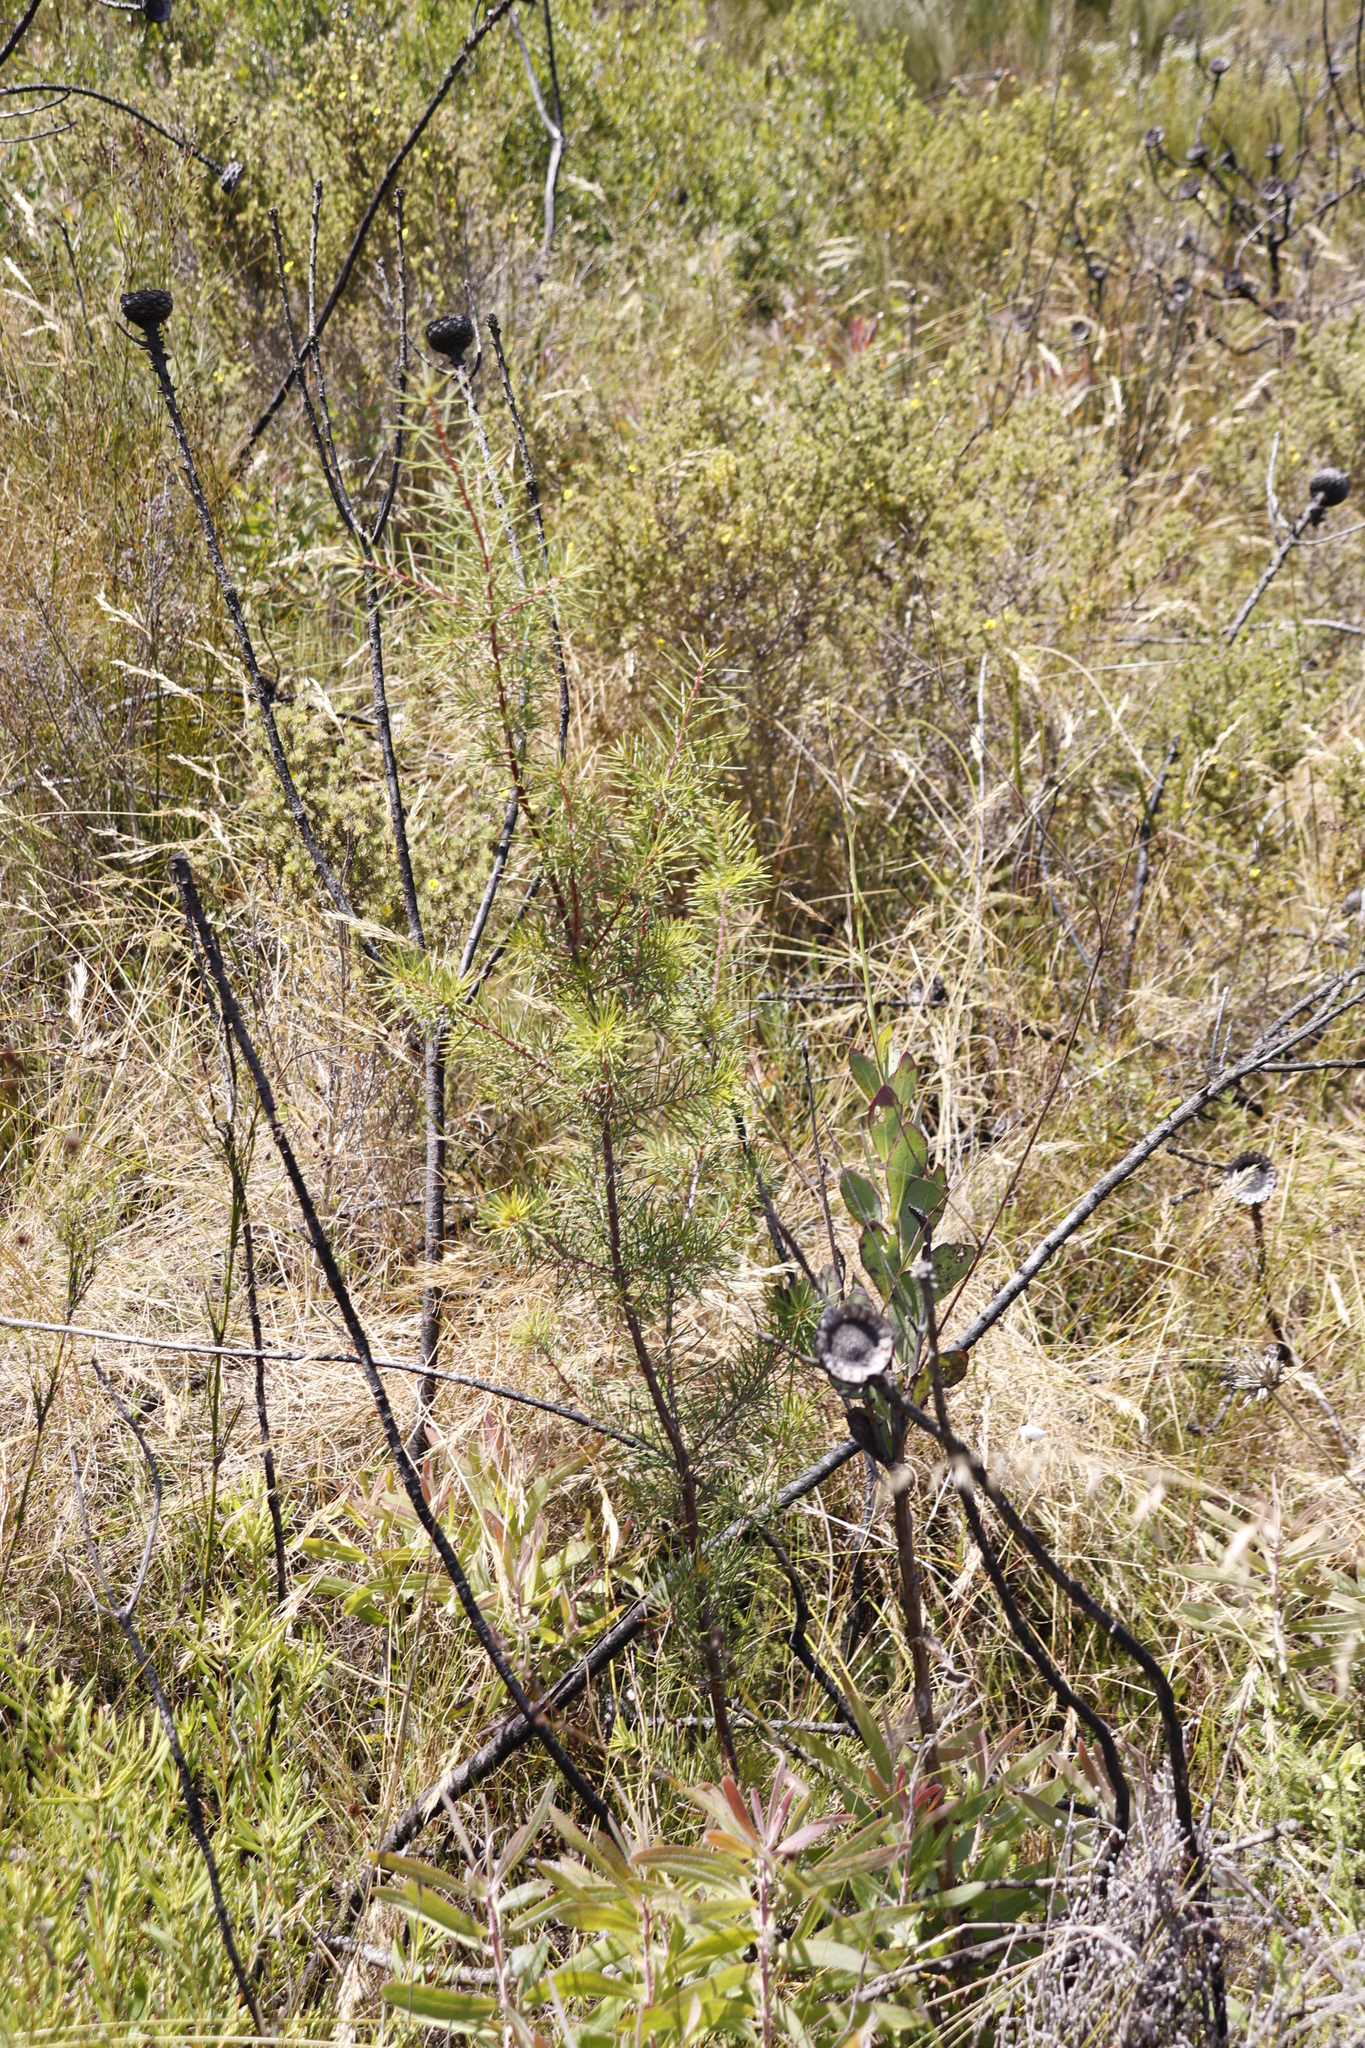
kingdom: Plantae
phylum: Tracheophyta
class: Magnoliopsida
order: Proteales
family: Proteaceae
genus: Hakea
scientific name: Hakea sericea
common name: Needle bush
